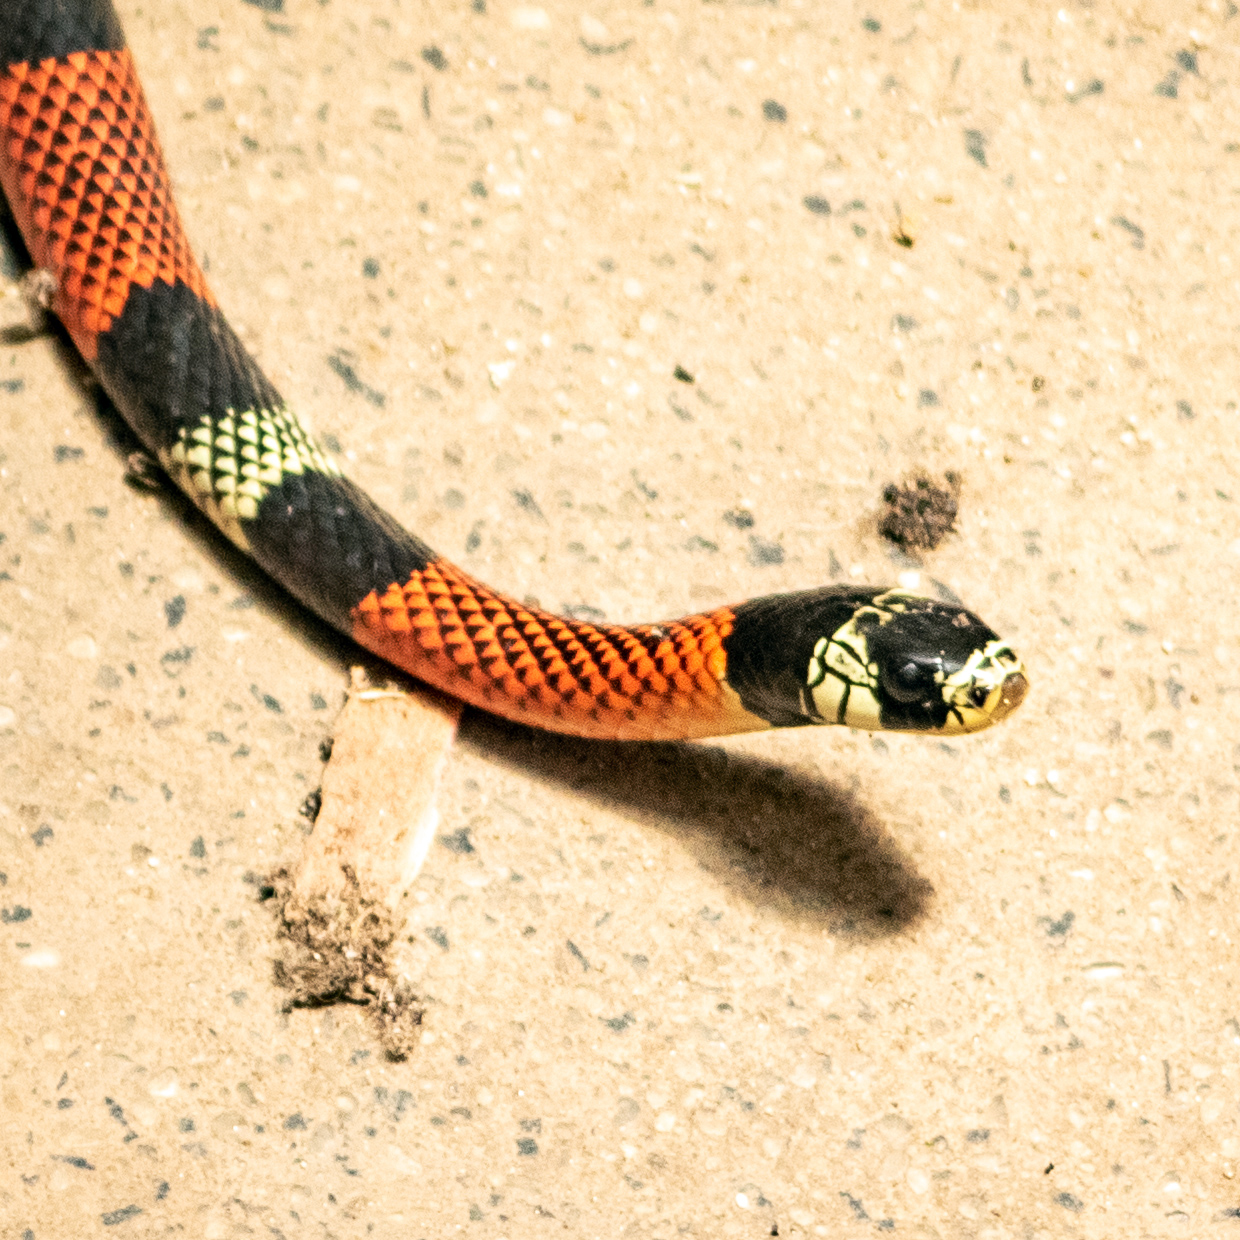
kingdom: Animalia
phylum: Chordata
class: Squamata
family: Colubridae
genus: Erythrolamprus
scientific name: Erythrolamprus aesculapii
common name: Aesculapian false coral snake
